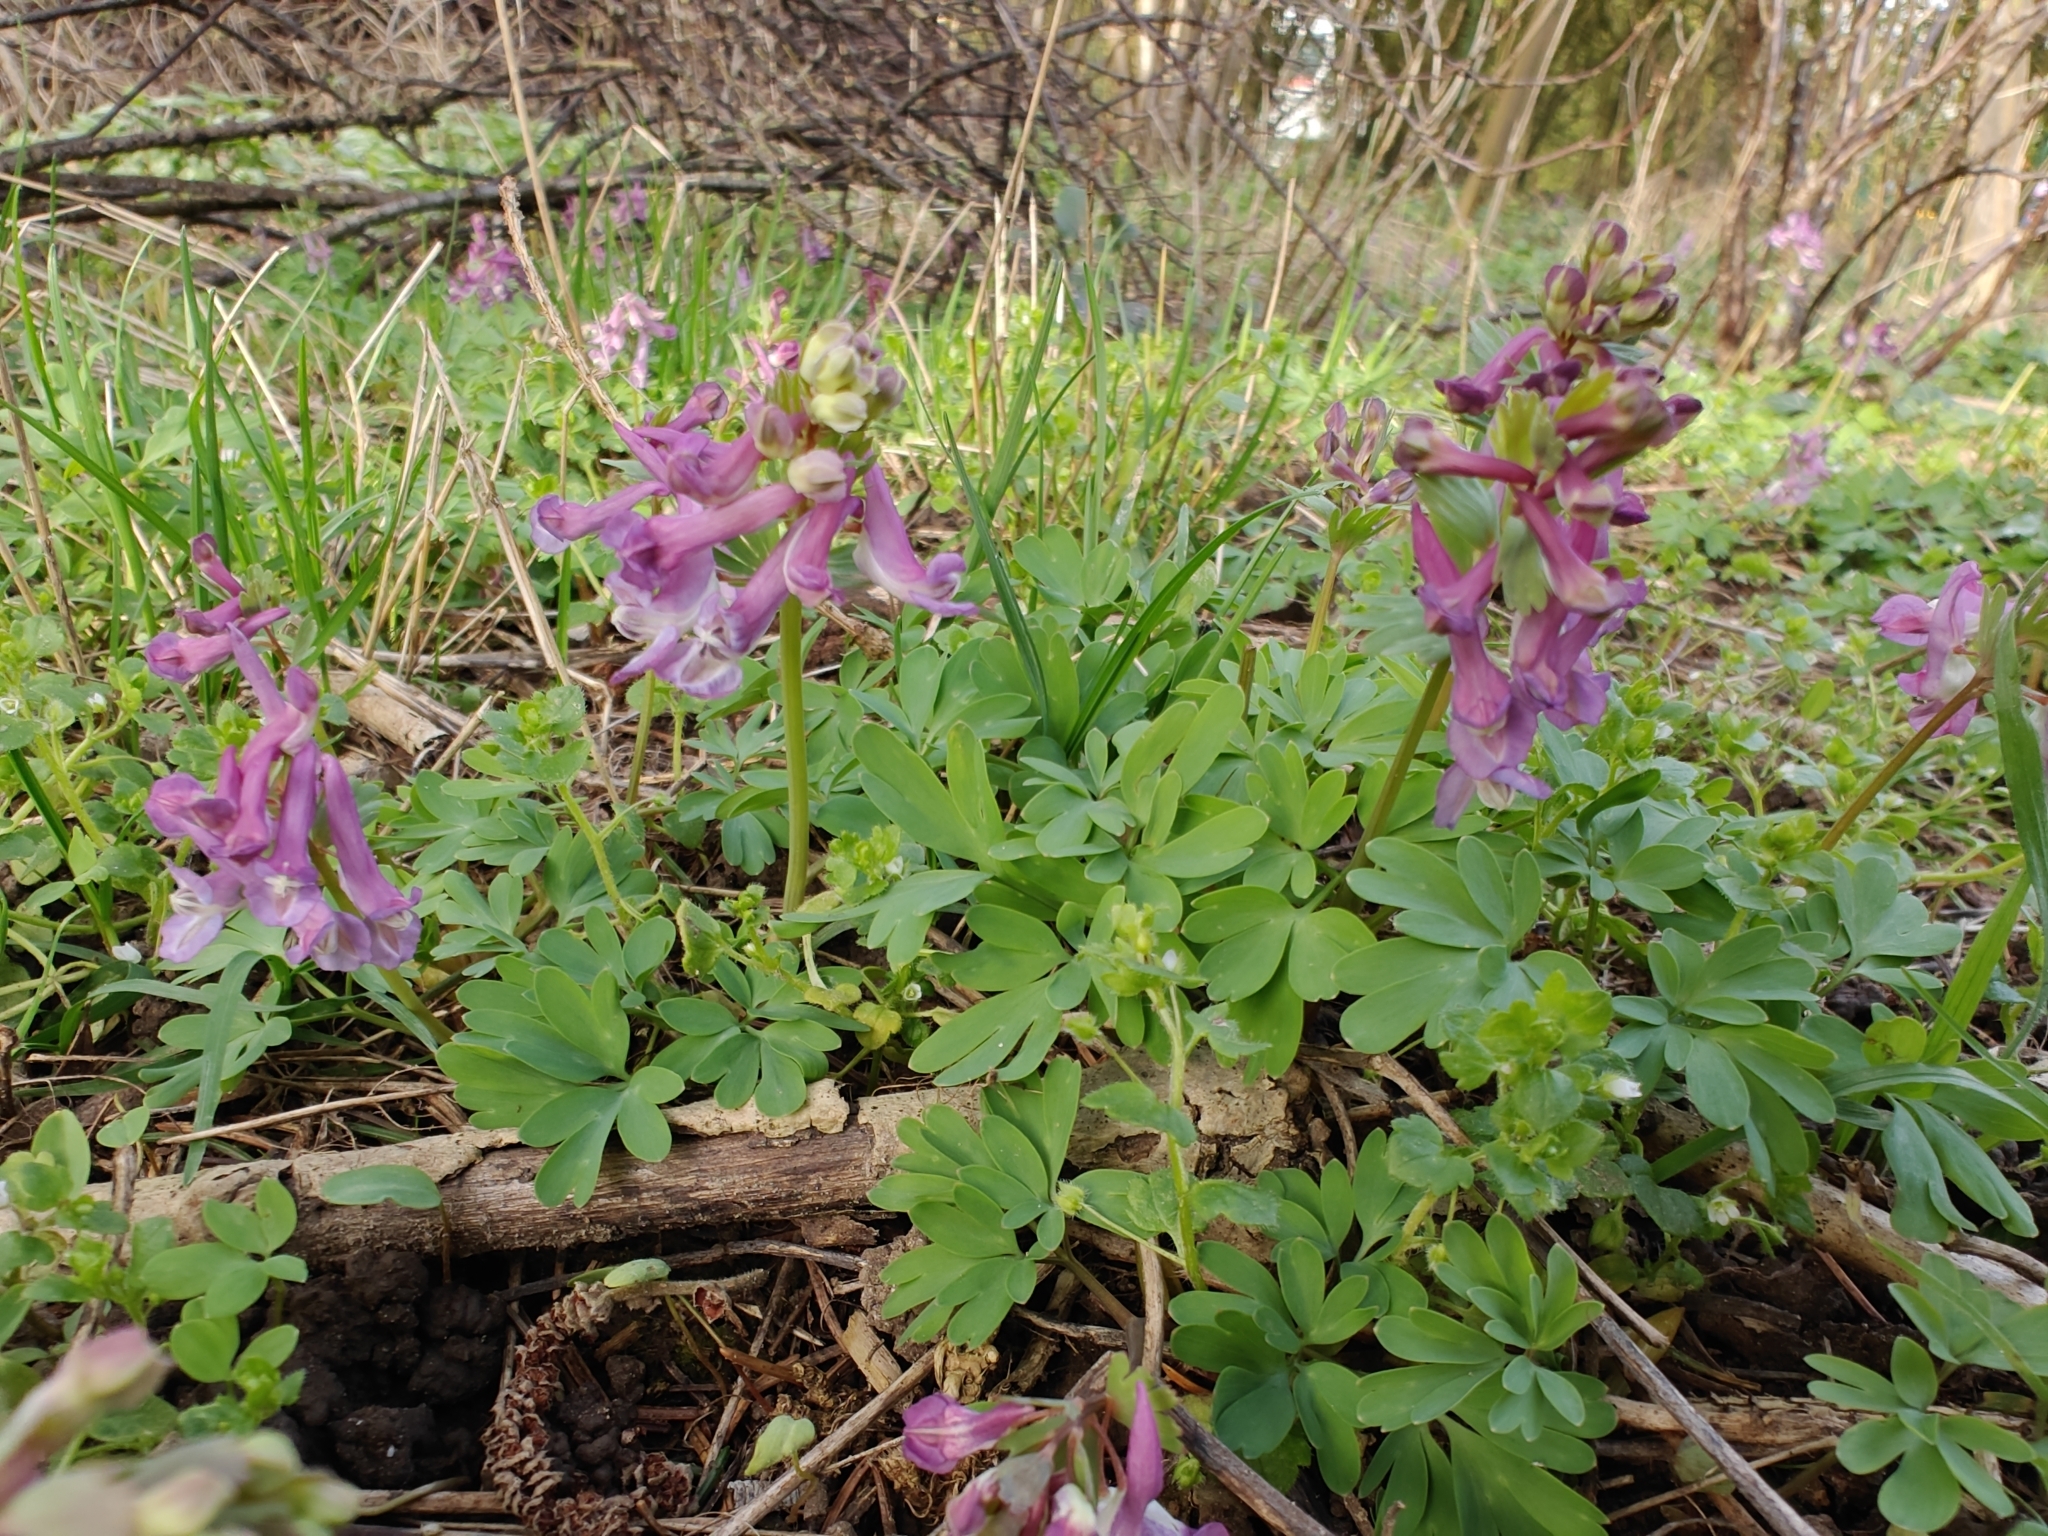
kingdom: Plantae
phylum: Tracheophyta
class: Magnoliopsida
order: Ranunculales
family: Papaveraceae
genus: Corydalis
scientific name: Corydalis solida
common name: Bird-in-a-bush
